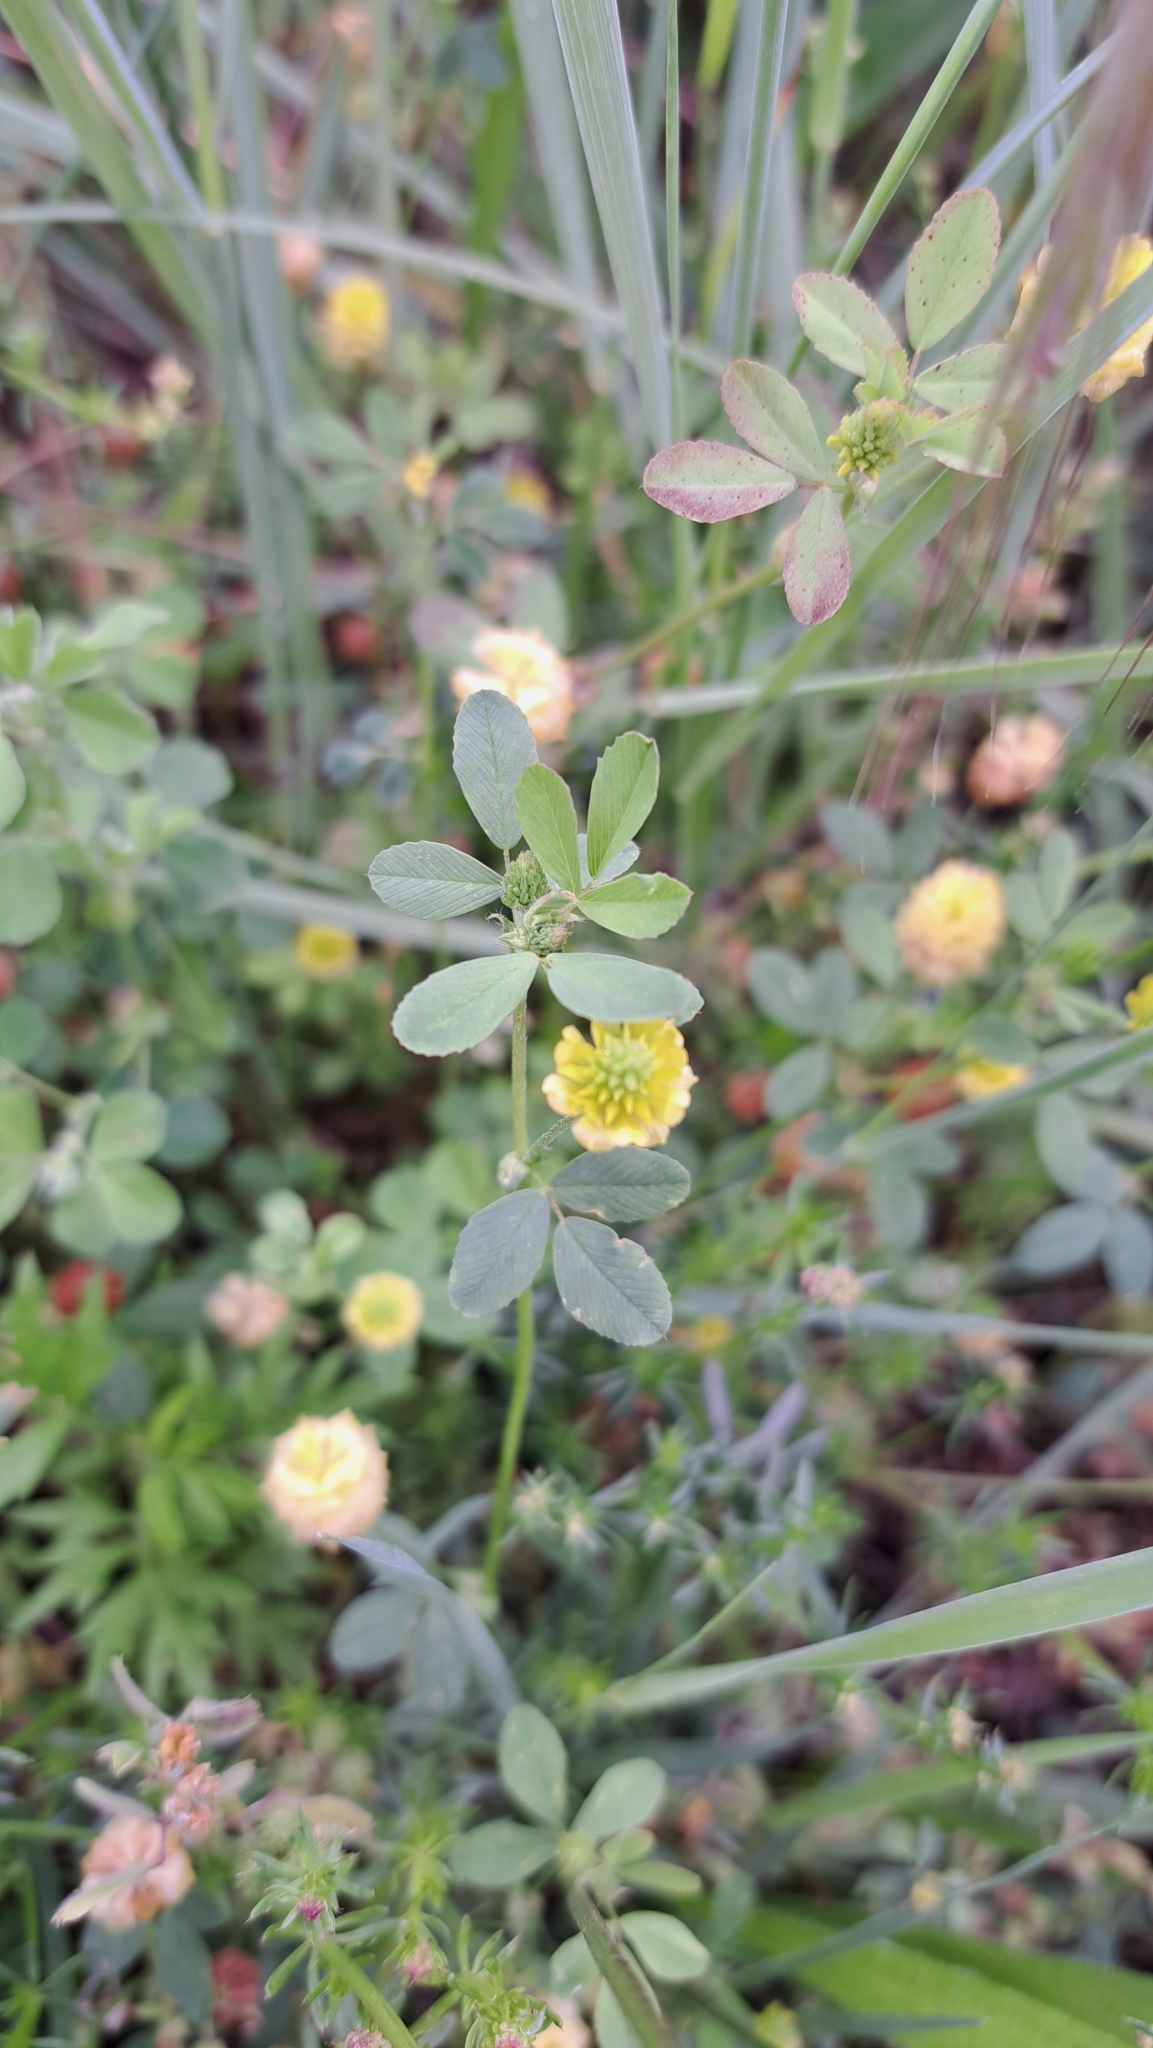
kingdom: Plantae
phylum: Tracheophyta
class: Magnoliopsida
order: Fabales
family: Fabaceae
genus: Trifolium
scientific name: Trifolium campestre
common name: Field clover
